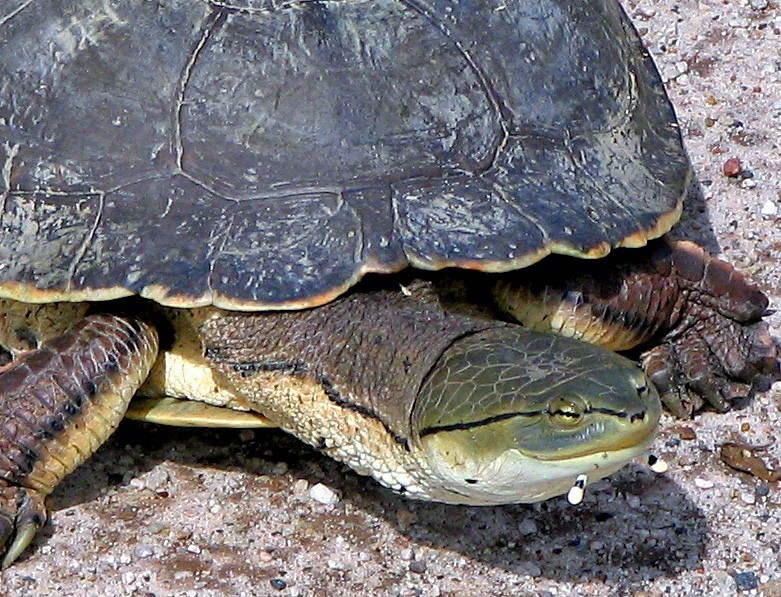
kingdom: Animalia
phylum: Chordata
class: Testudines
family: Chelidae
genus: Phrynops
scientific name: Phrynops hilarii
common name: Side-necked turtle of saint hillaire
